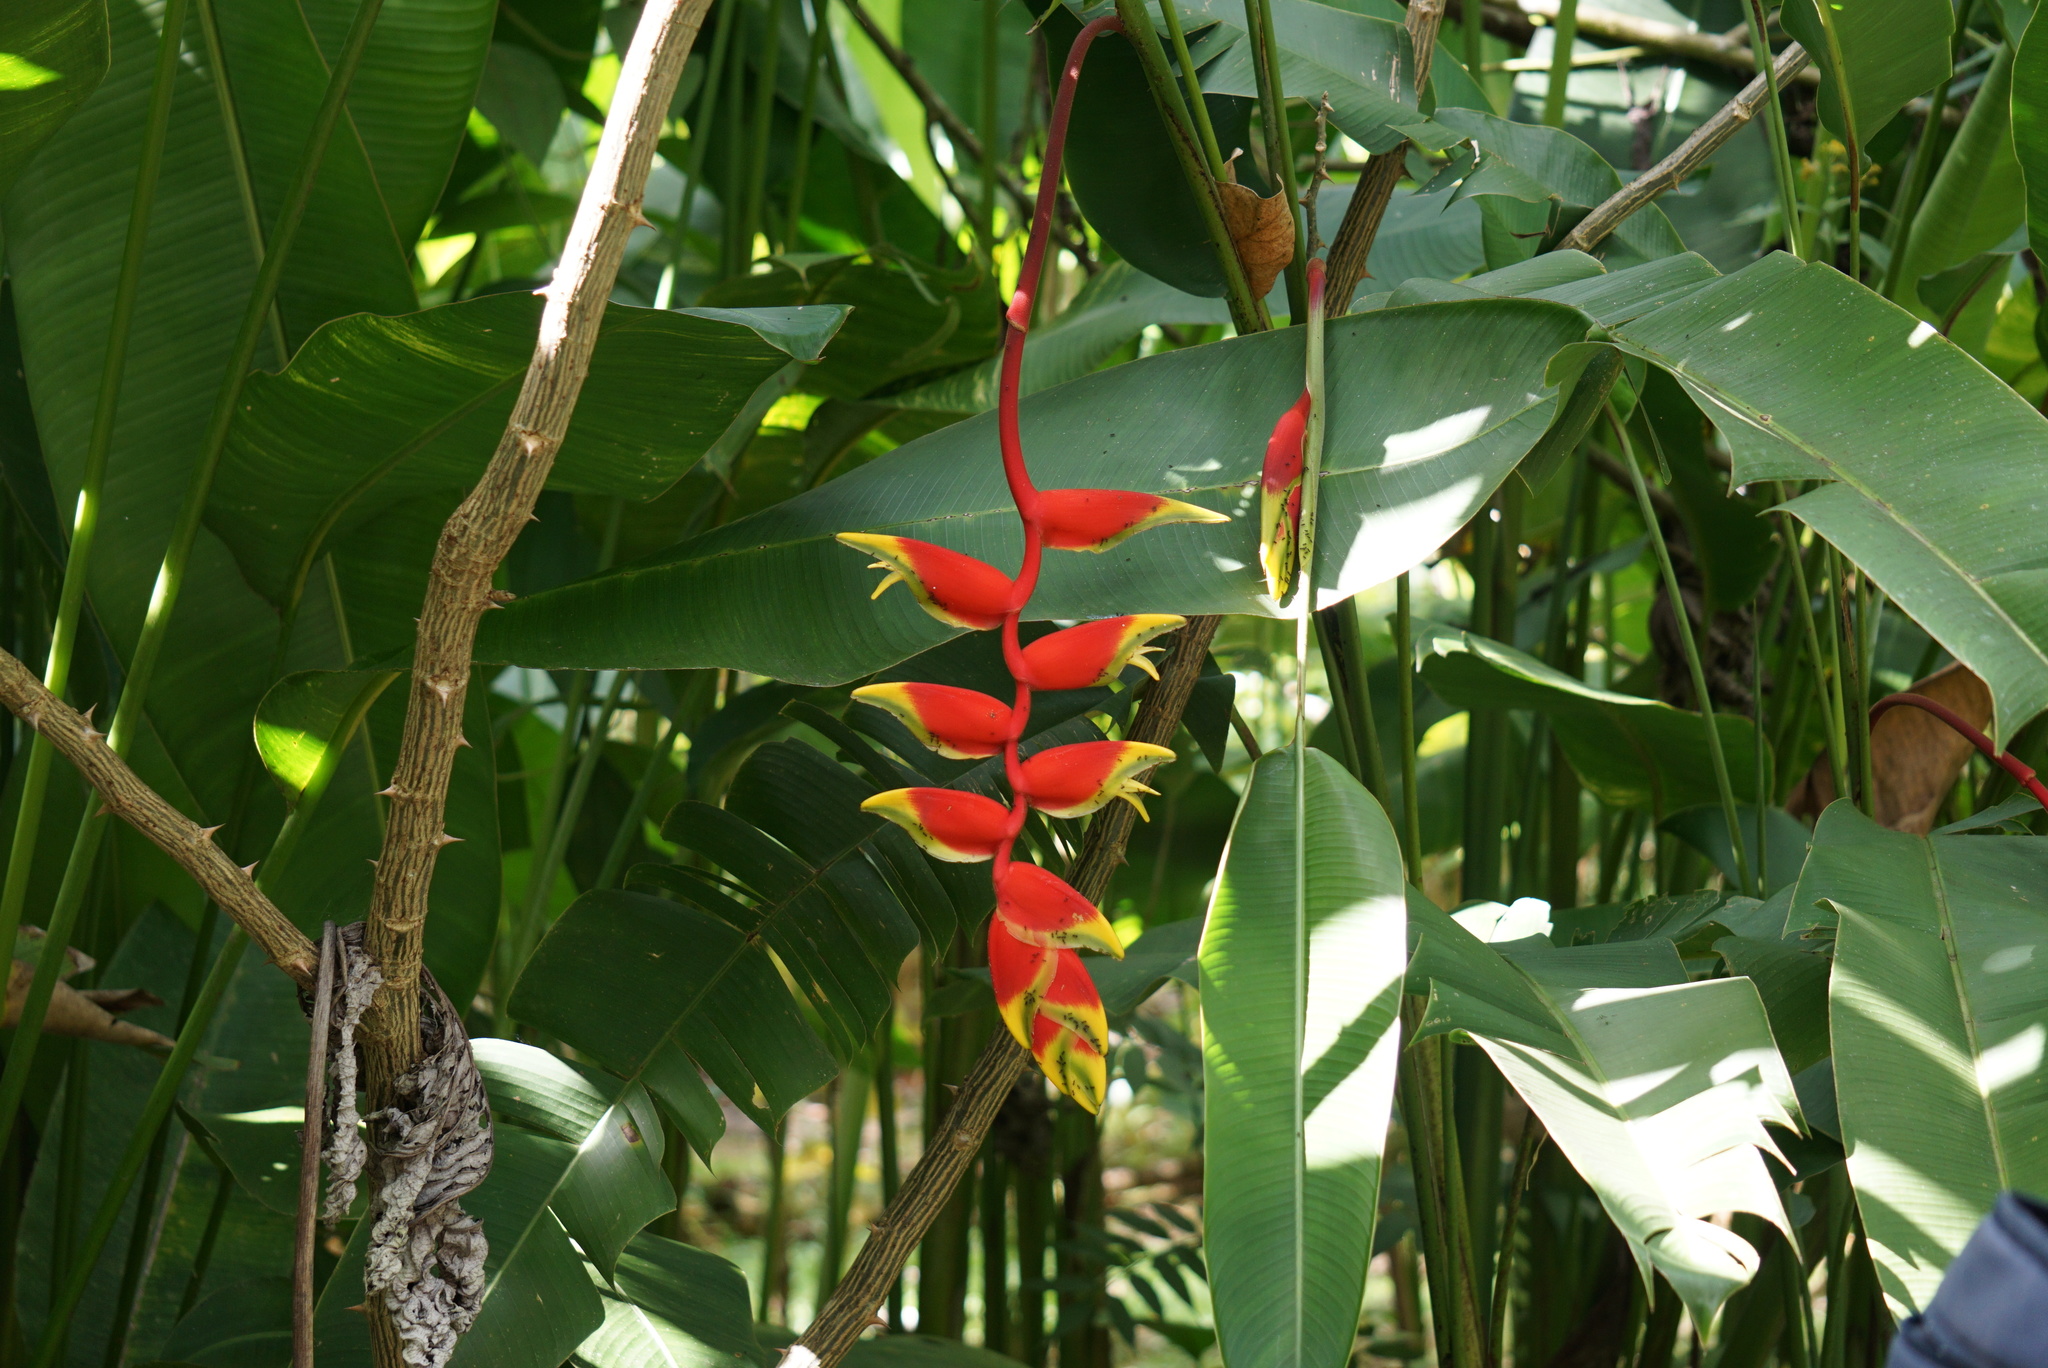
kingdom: Plantae
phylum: Tracheophyta
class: Liliopsida
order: Zingiberales
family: Heliconiaceae
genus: Heliconia
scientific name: Heliconia rostrata
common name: False bird of paradise
